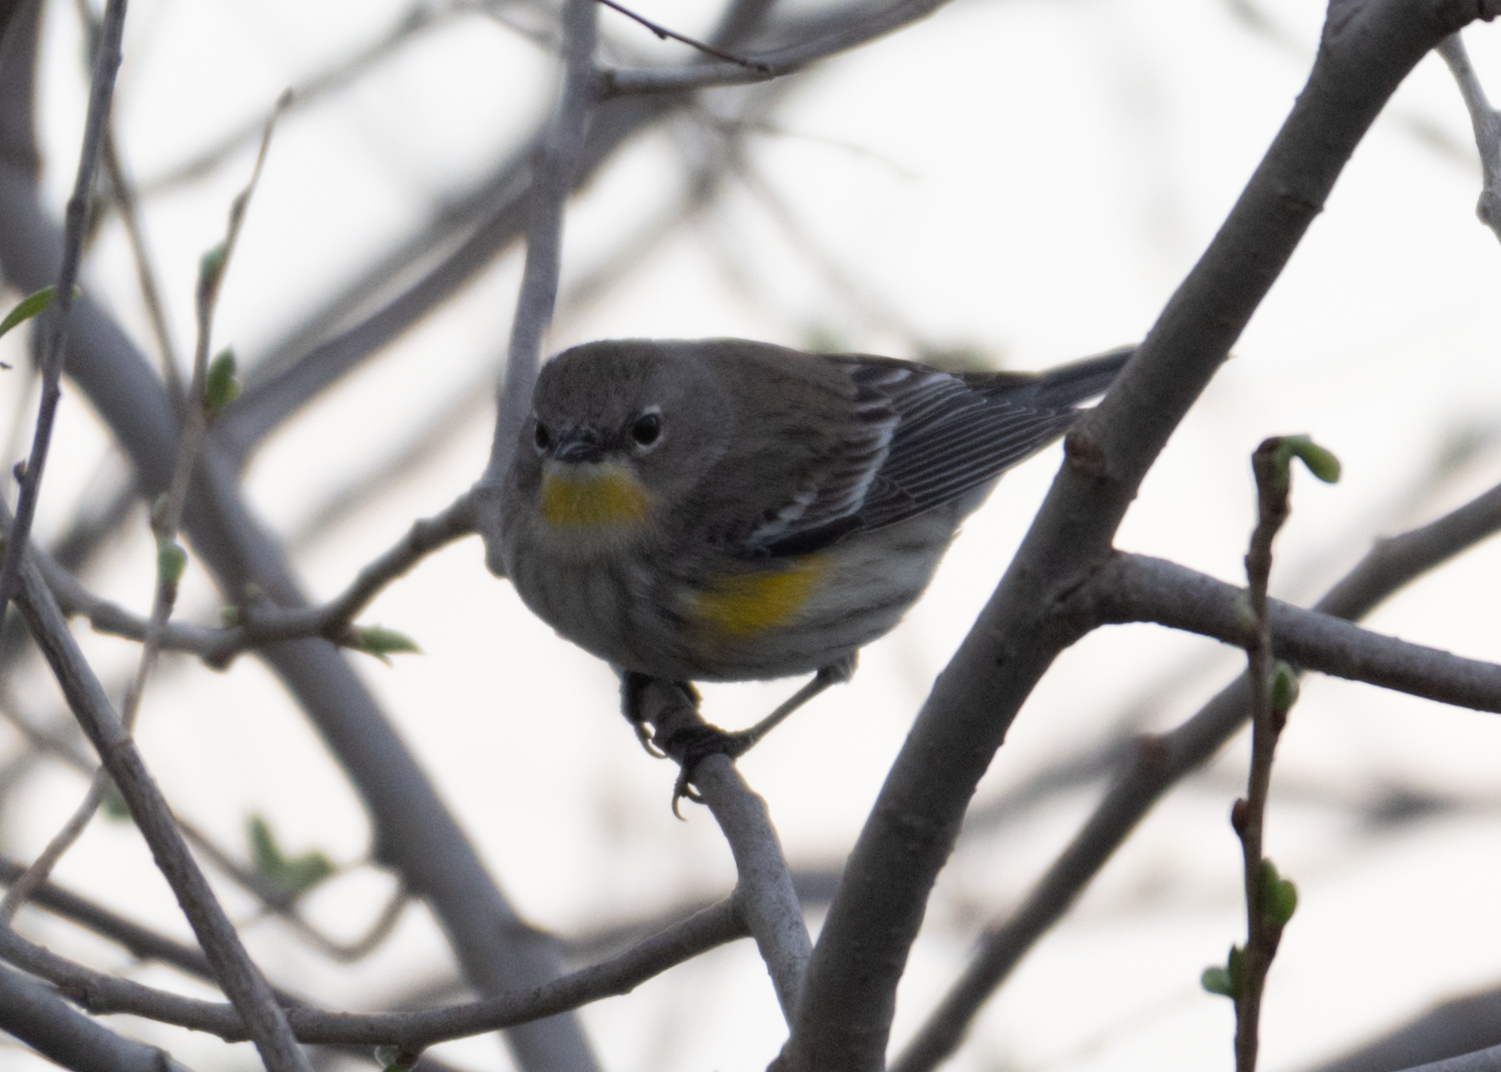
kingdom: Animalia
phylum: Chordata
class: Aves
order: Passeriformes
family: Parulidae
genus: Setophaga
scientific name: Setophaga coronata
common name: Myrtle warbler
